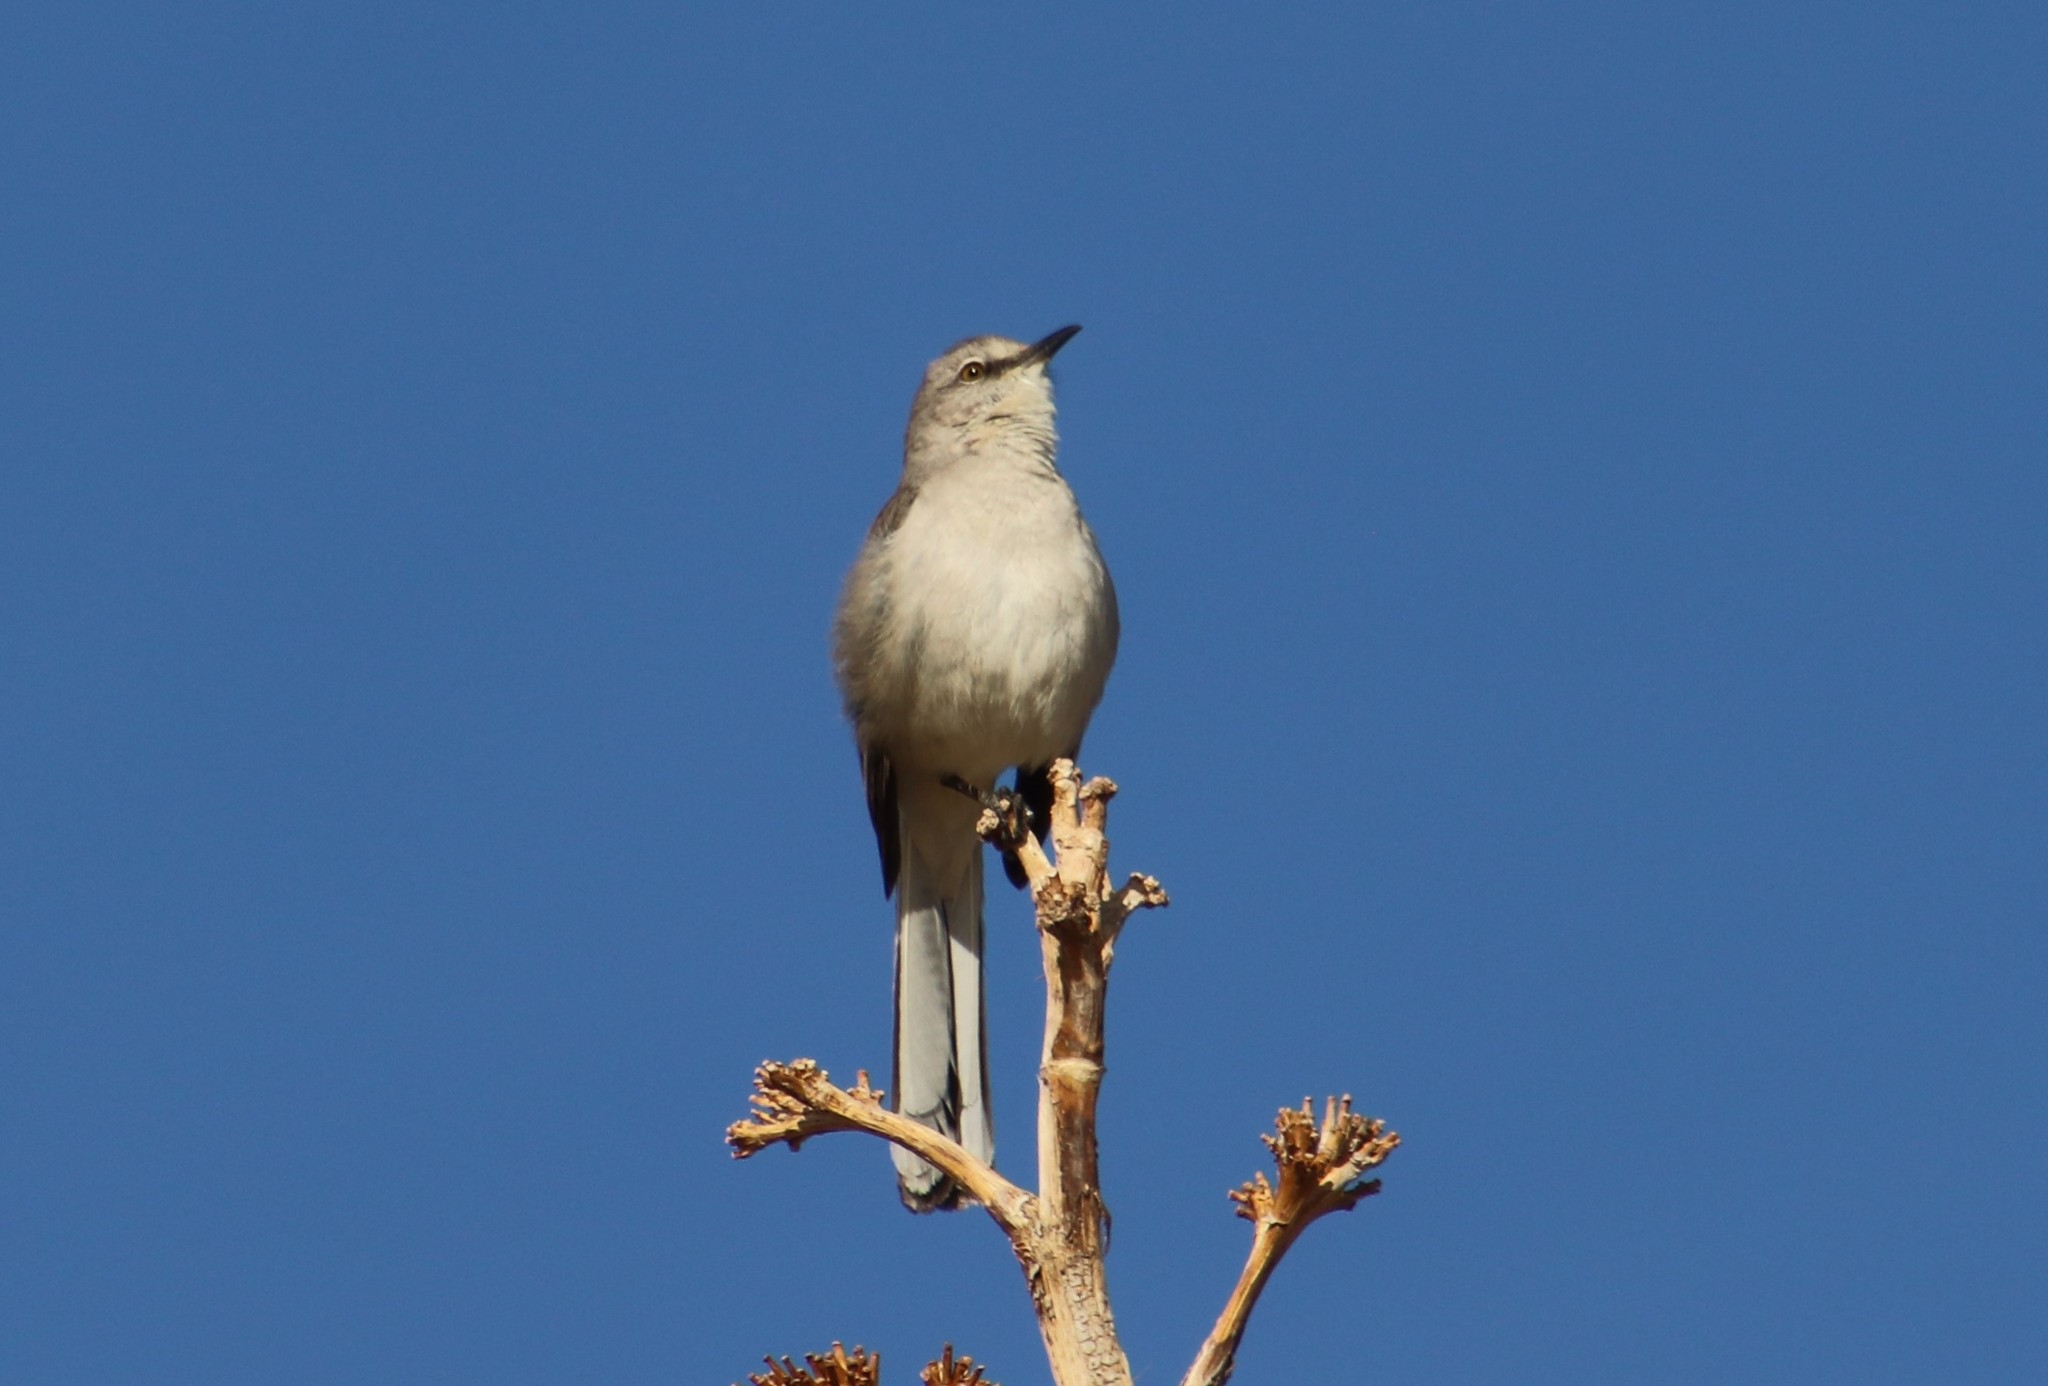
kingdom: Animalia
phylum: Chordata
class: Aves
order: Passeriformes
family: Mimidae
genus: Mimus
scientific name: Mimus polyglottos
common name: Northern mockingbird
